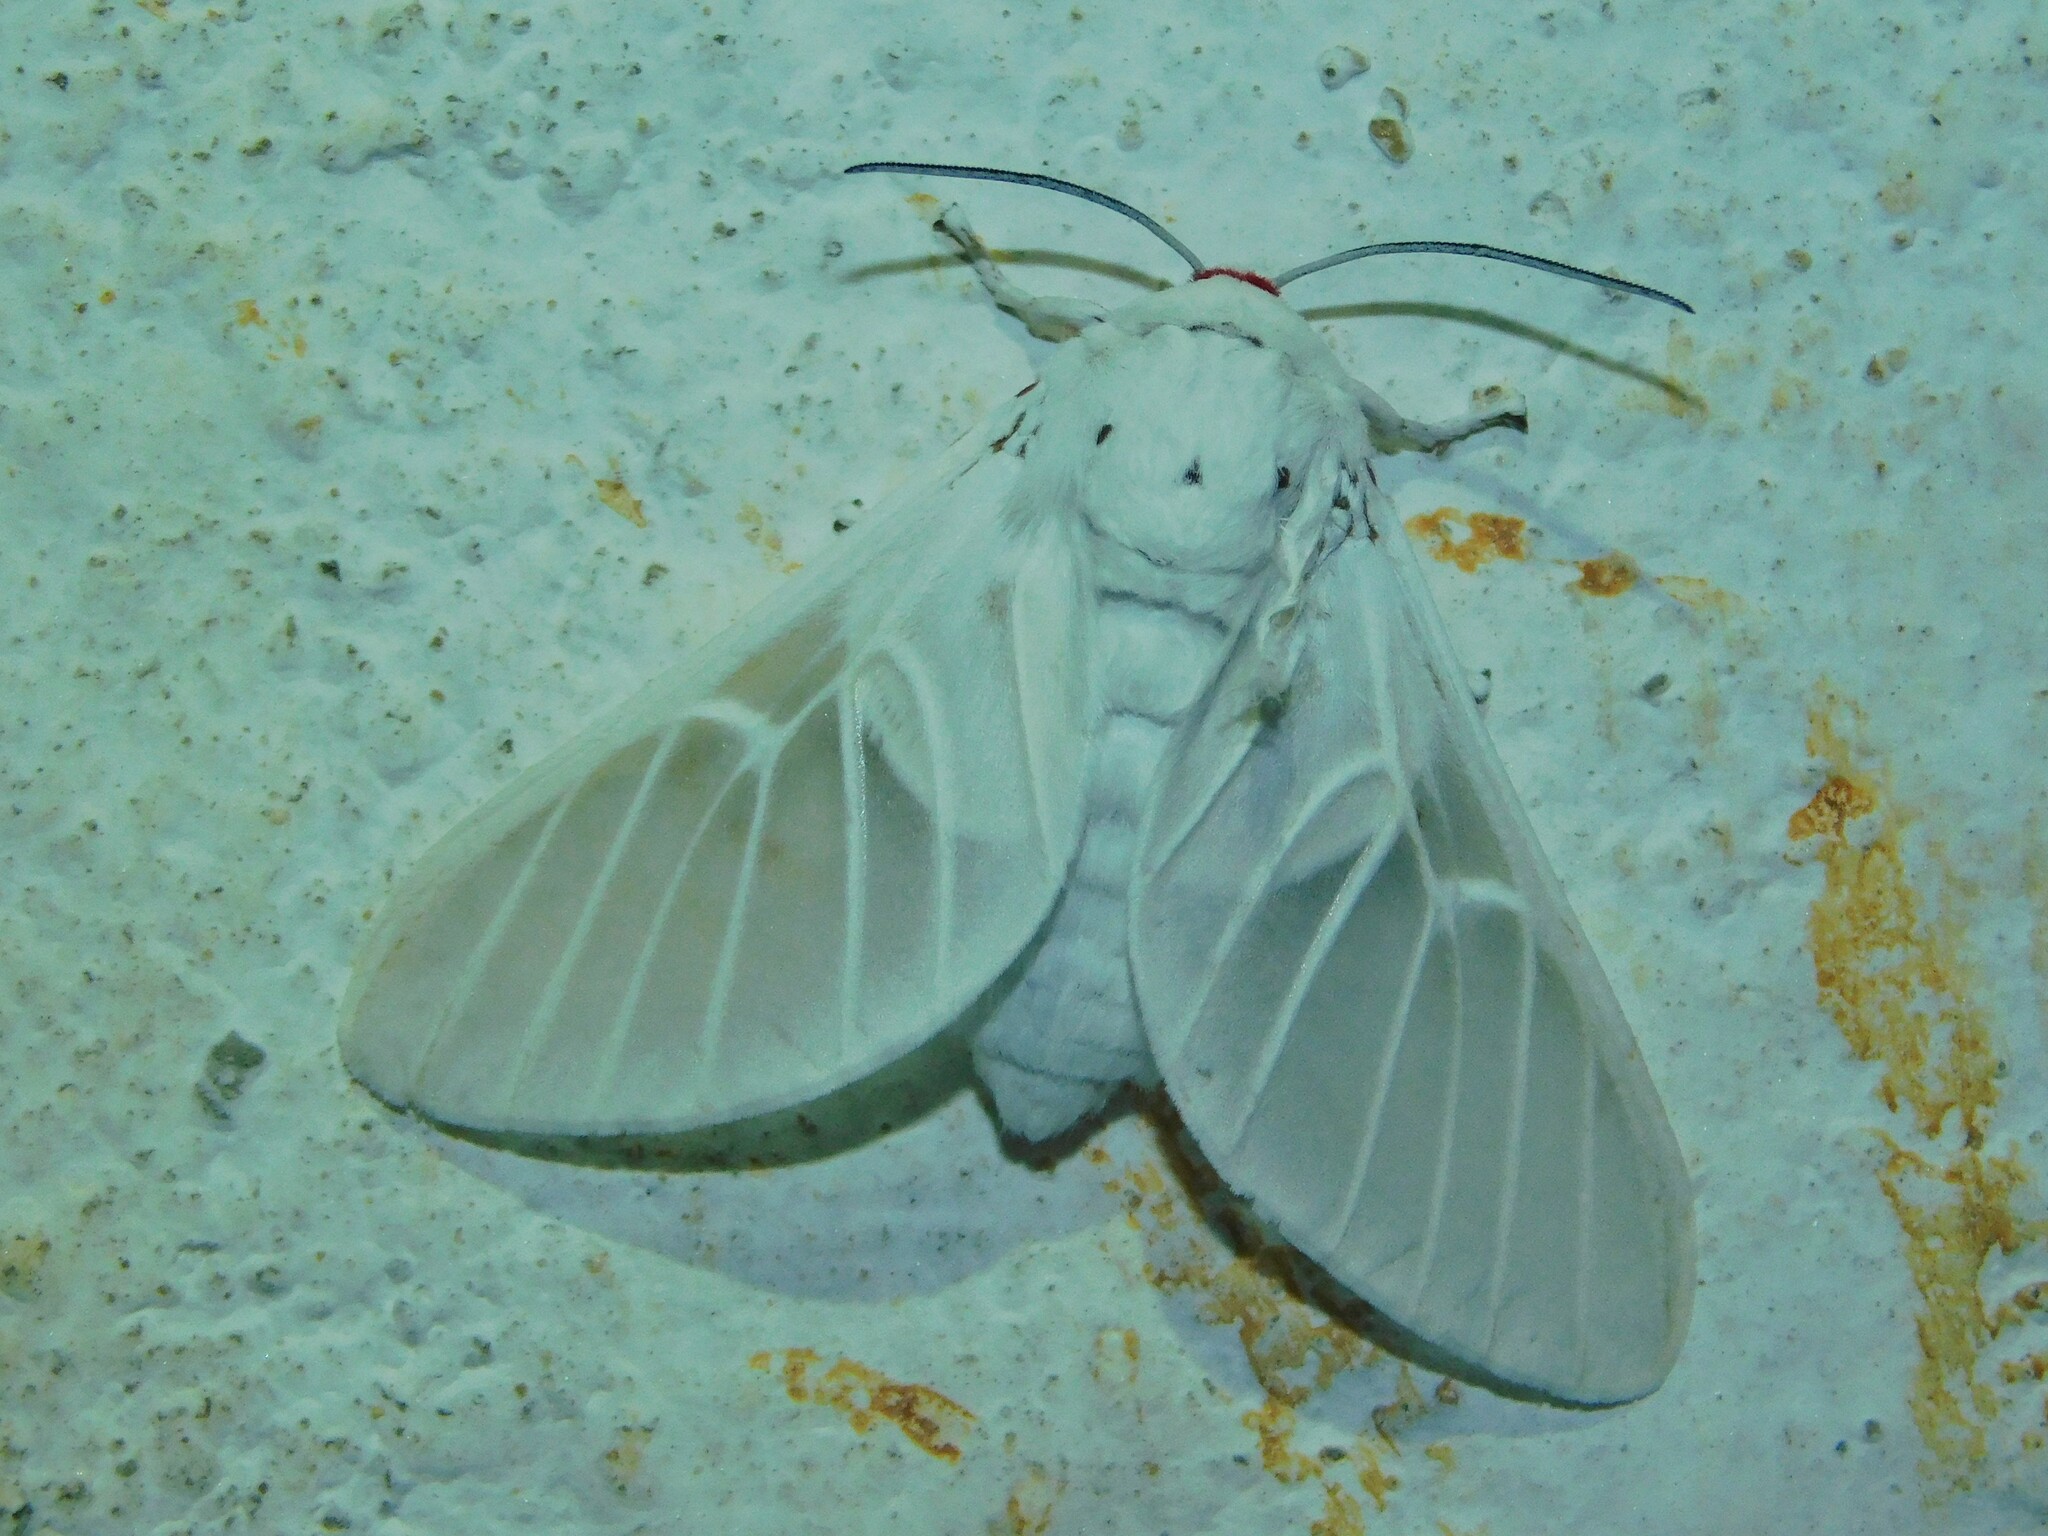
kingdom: Animalia
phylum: Arthropoda
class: Insecta
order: Lepidoptera
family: Erebidae
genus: Balacra
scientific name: Balacra pulchra
